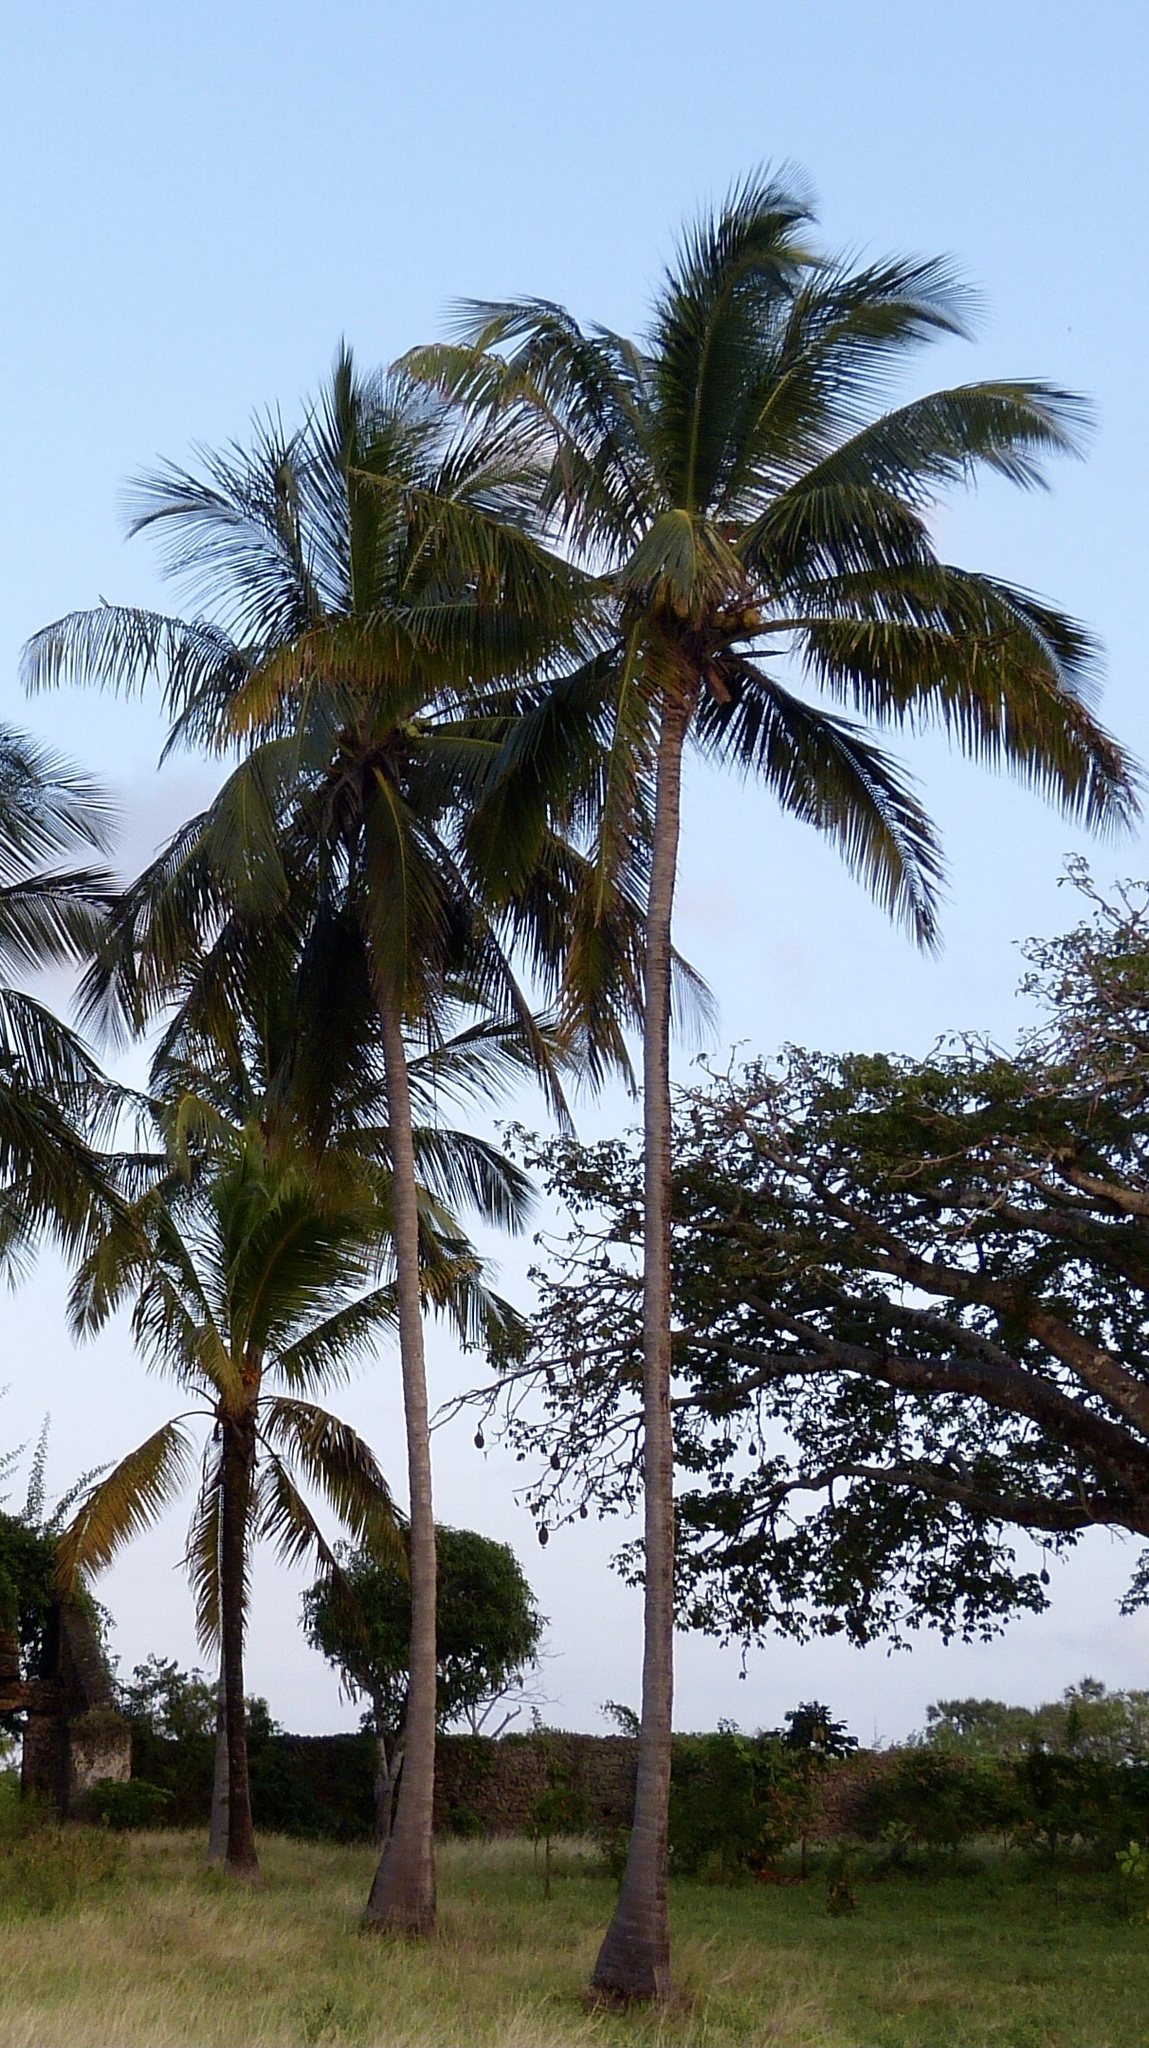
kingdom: Plantae
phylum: Tracheophyta
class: Liliopsida
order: Arecales
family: Arecaceae
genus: Cocos
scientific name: Cocos nucifera
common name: Coconut palm
